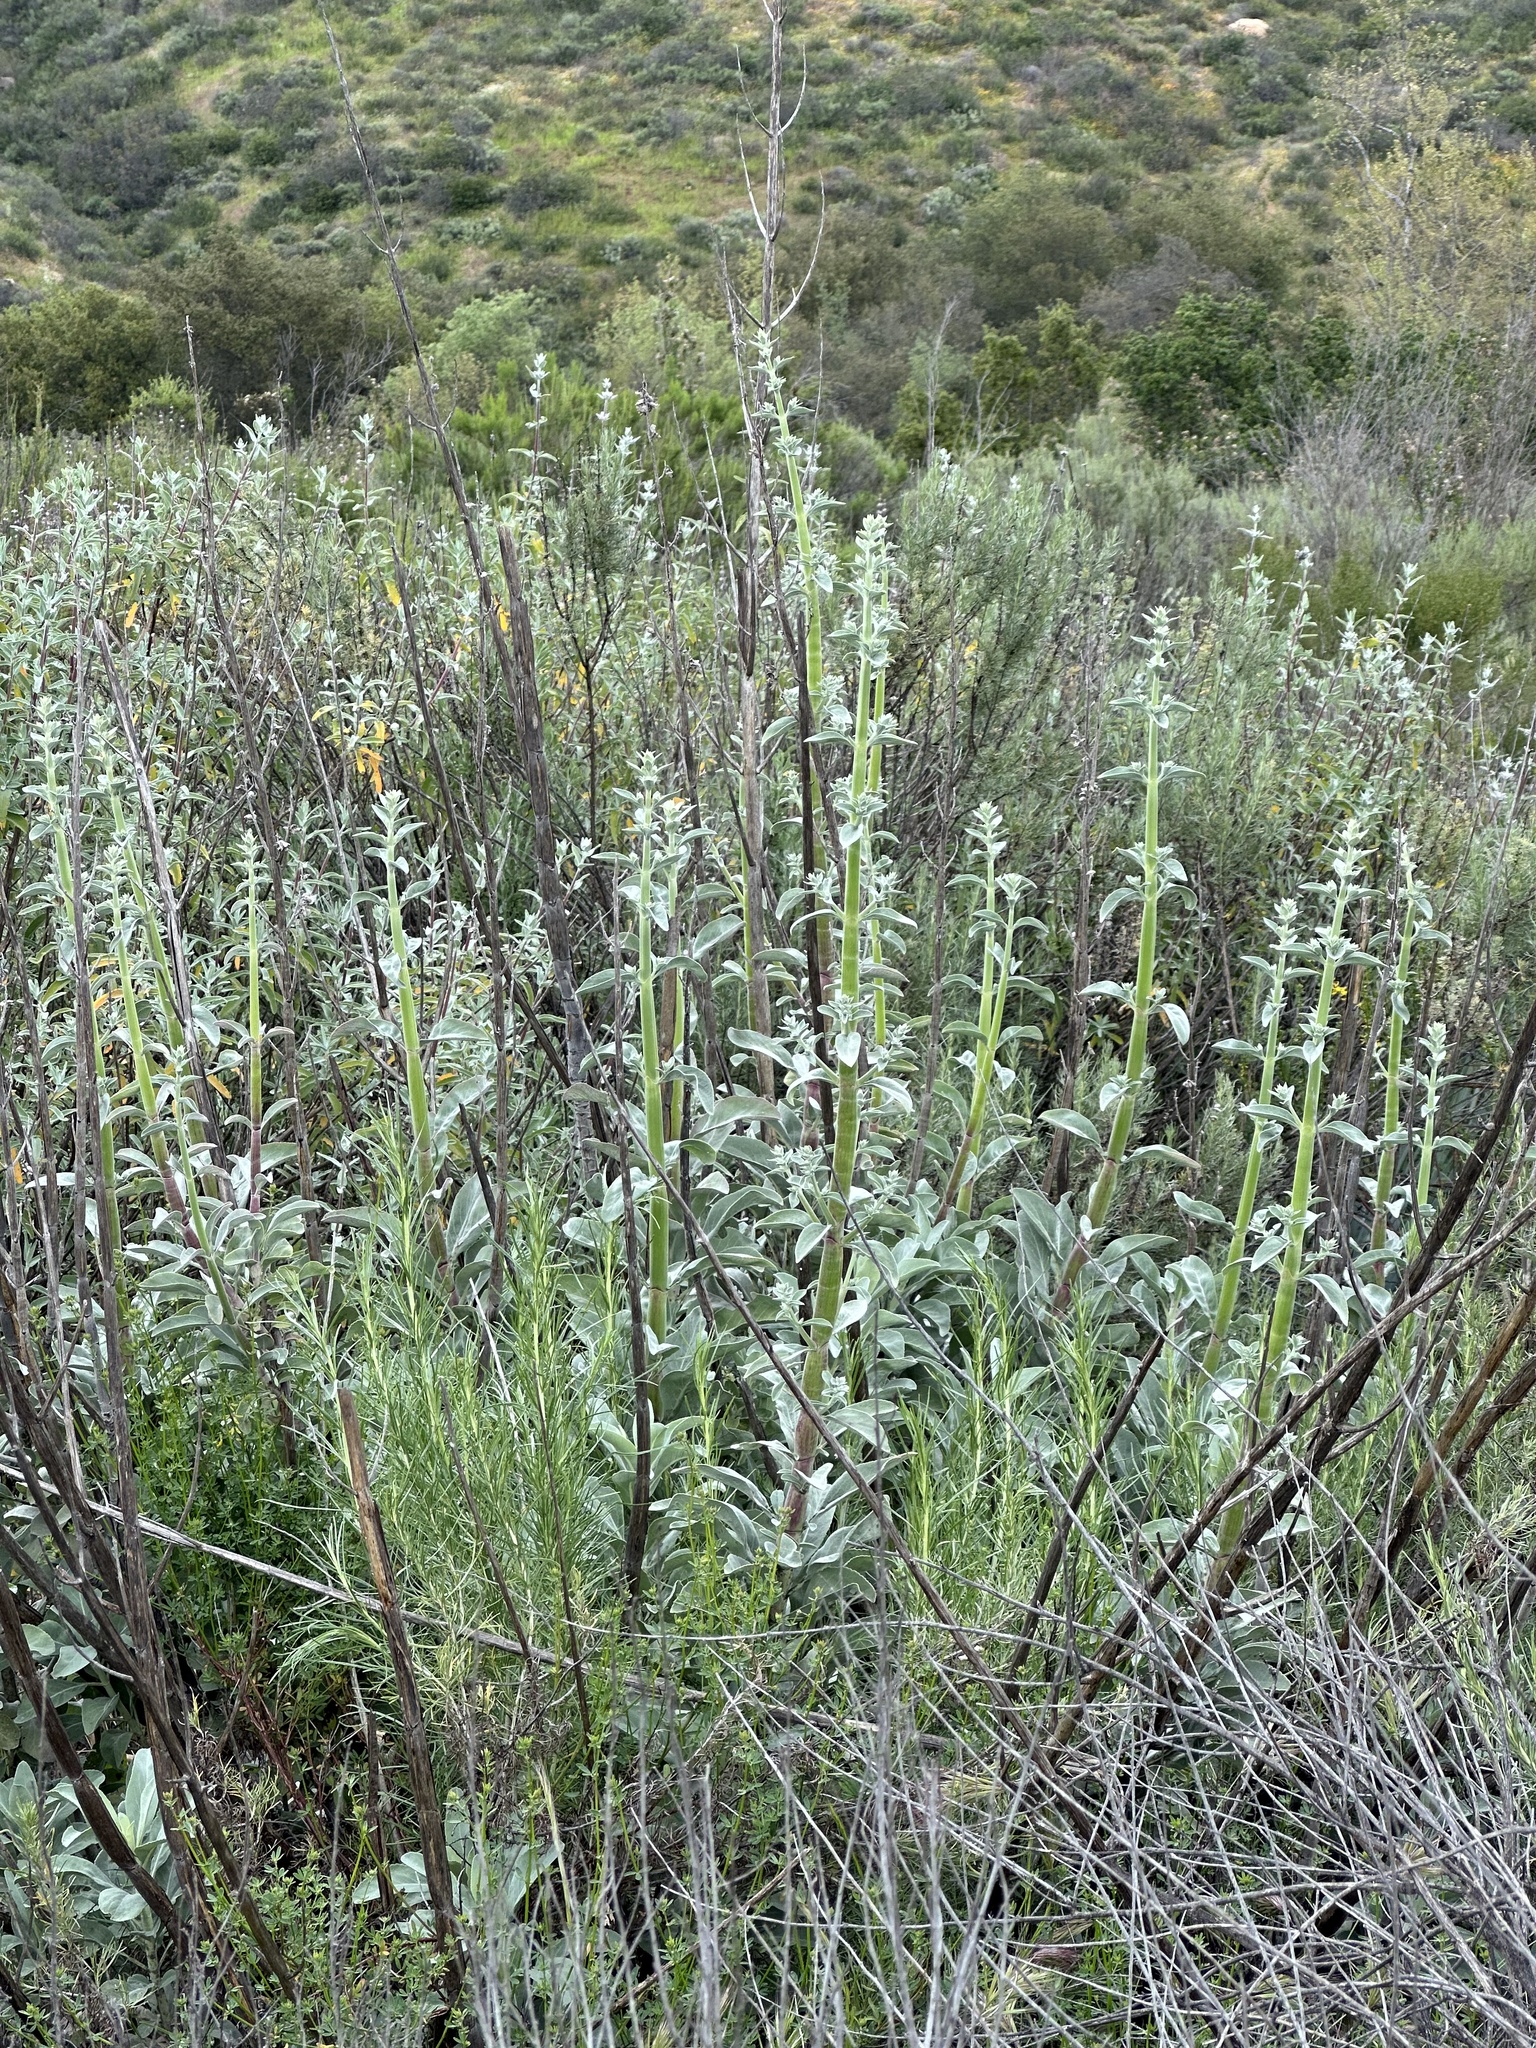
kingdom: Plantae
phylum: Tracheophyta
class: Magnoliopsida
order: Lamiales
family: Lamiaceae
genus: Salvia
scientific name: Salvia apiana
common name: White sage
